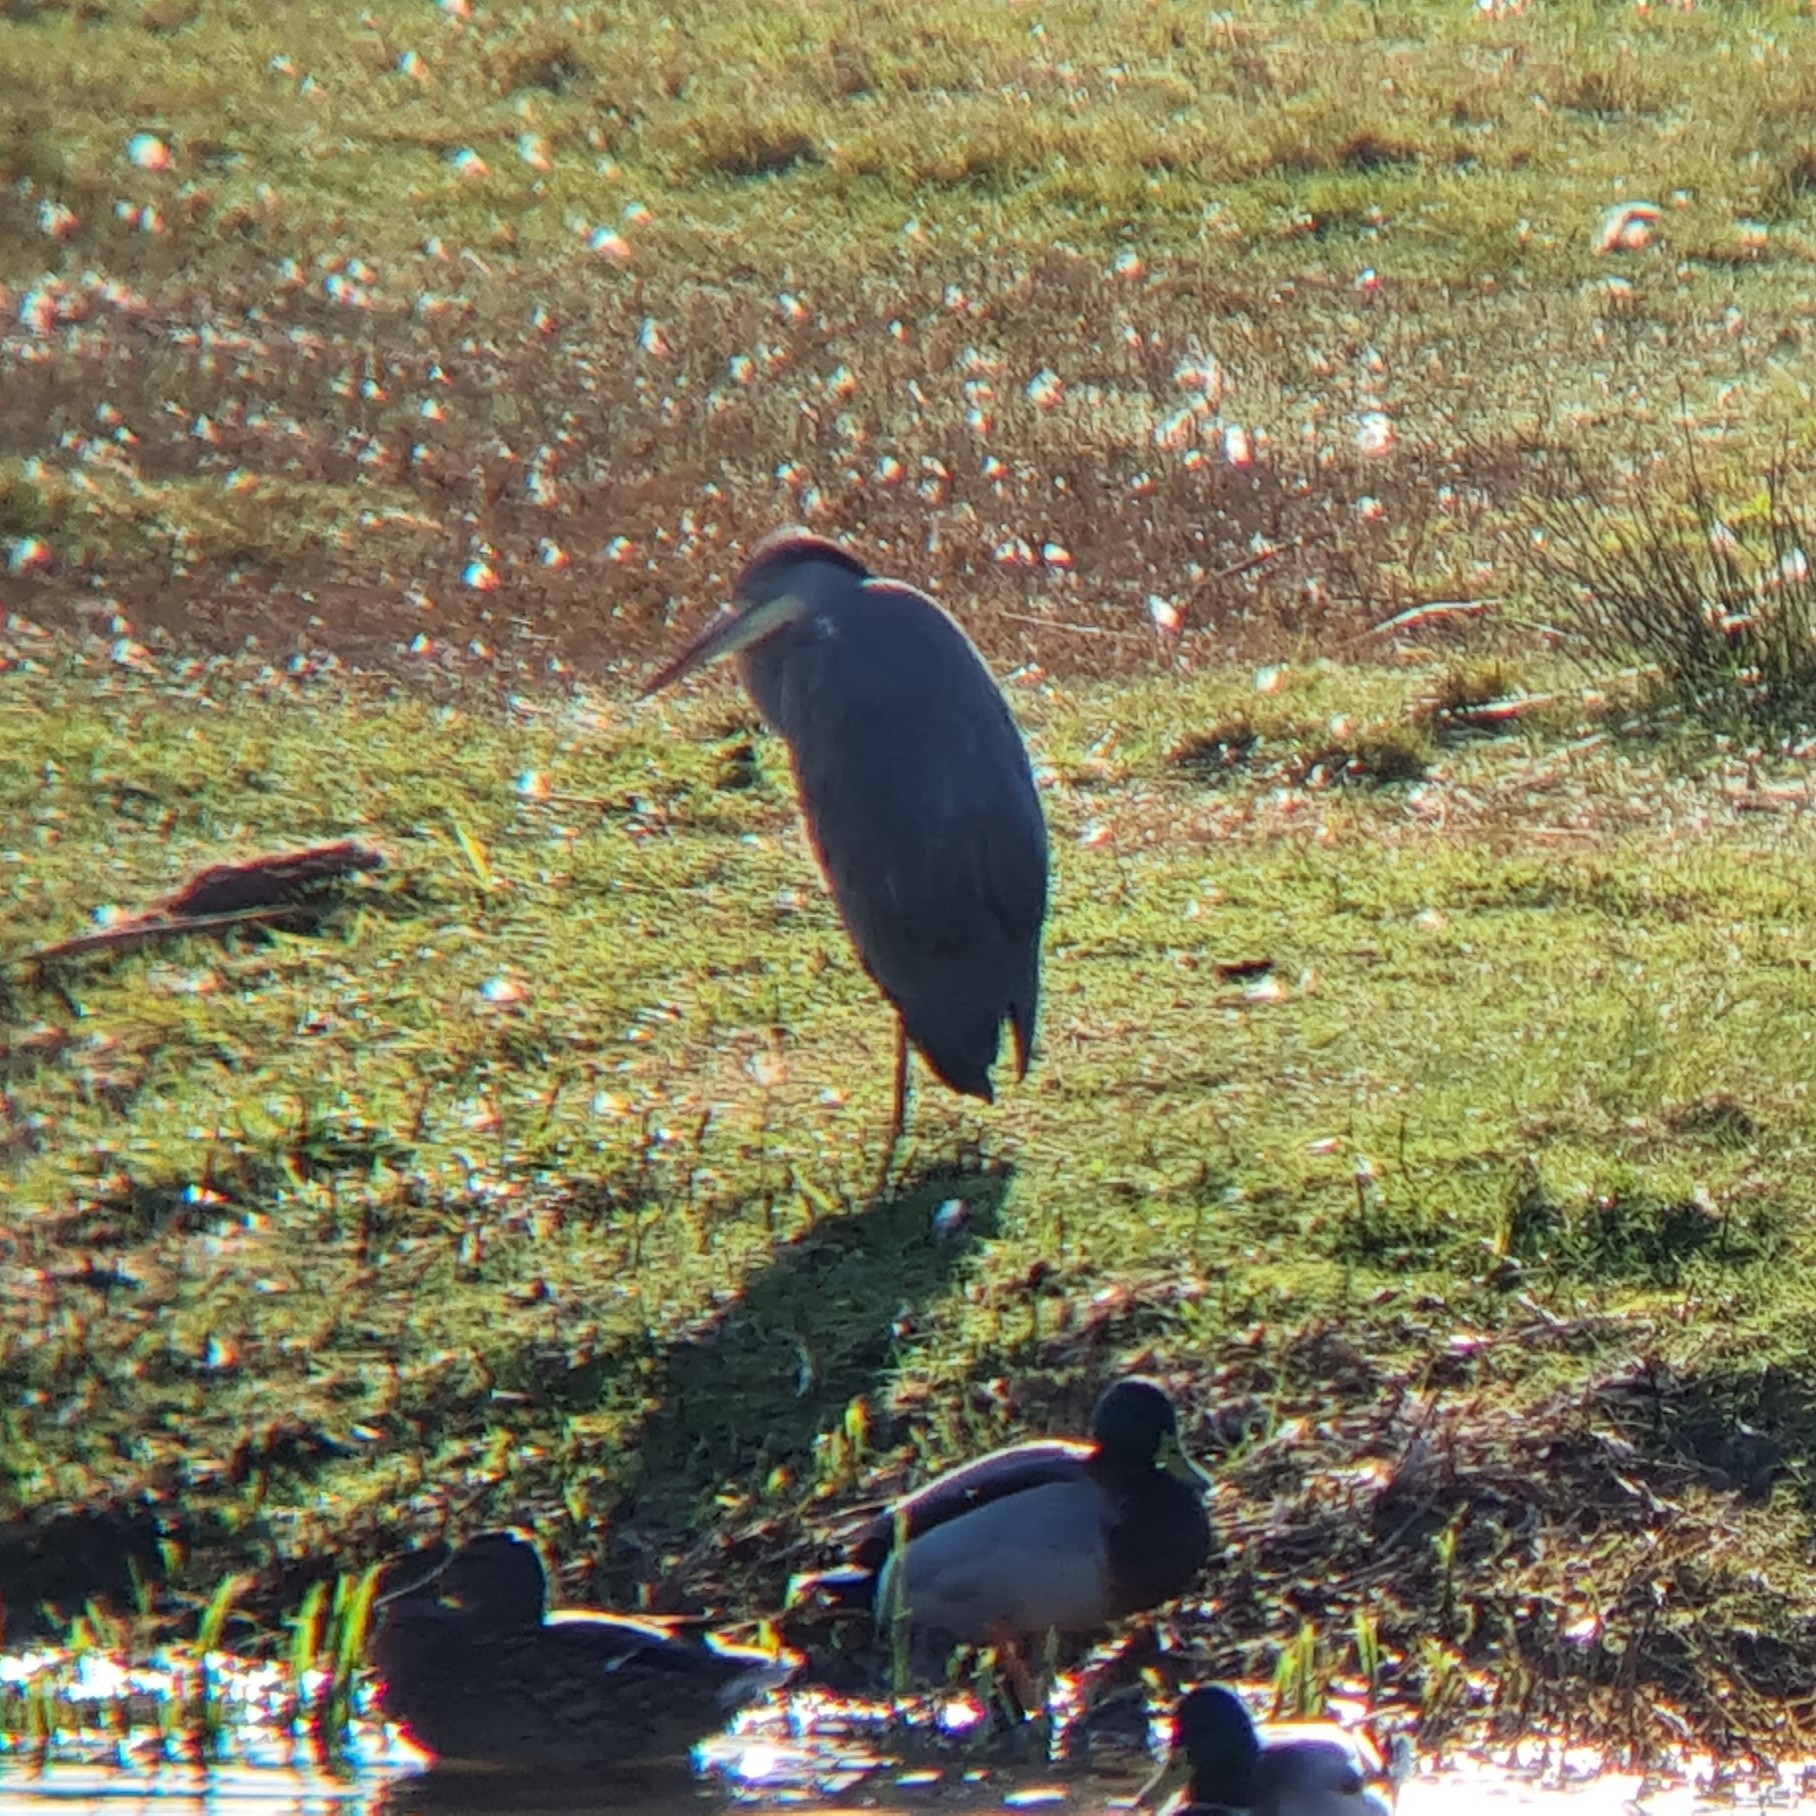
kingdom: Animalia
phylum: Chordata
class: Aves
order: Pelecaniformes
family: Ardeidae
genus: Ardea
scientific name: Ardea cinerea
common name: Grey heron
